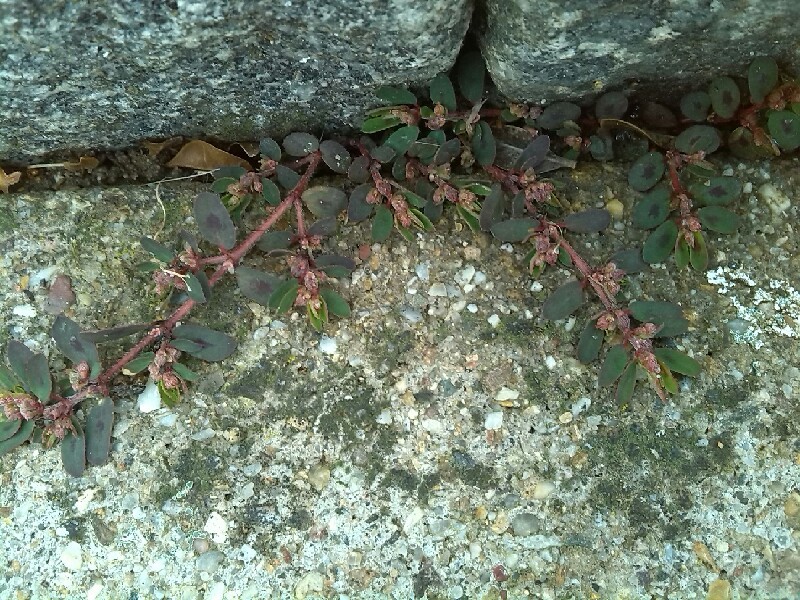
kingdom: Plantae
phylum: Tracheophyta
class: Magnoliopsida
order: Malpighiales
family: Euphorbiaceae
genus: Euphorbia
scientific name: Euphorbia maculata
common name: Spotted spurge
